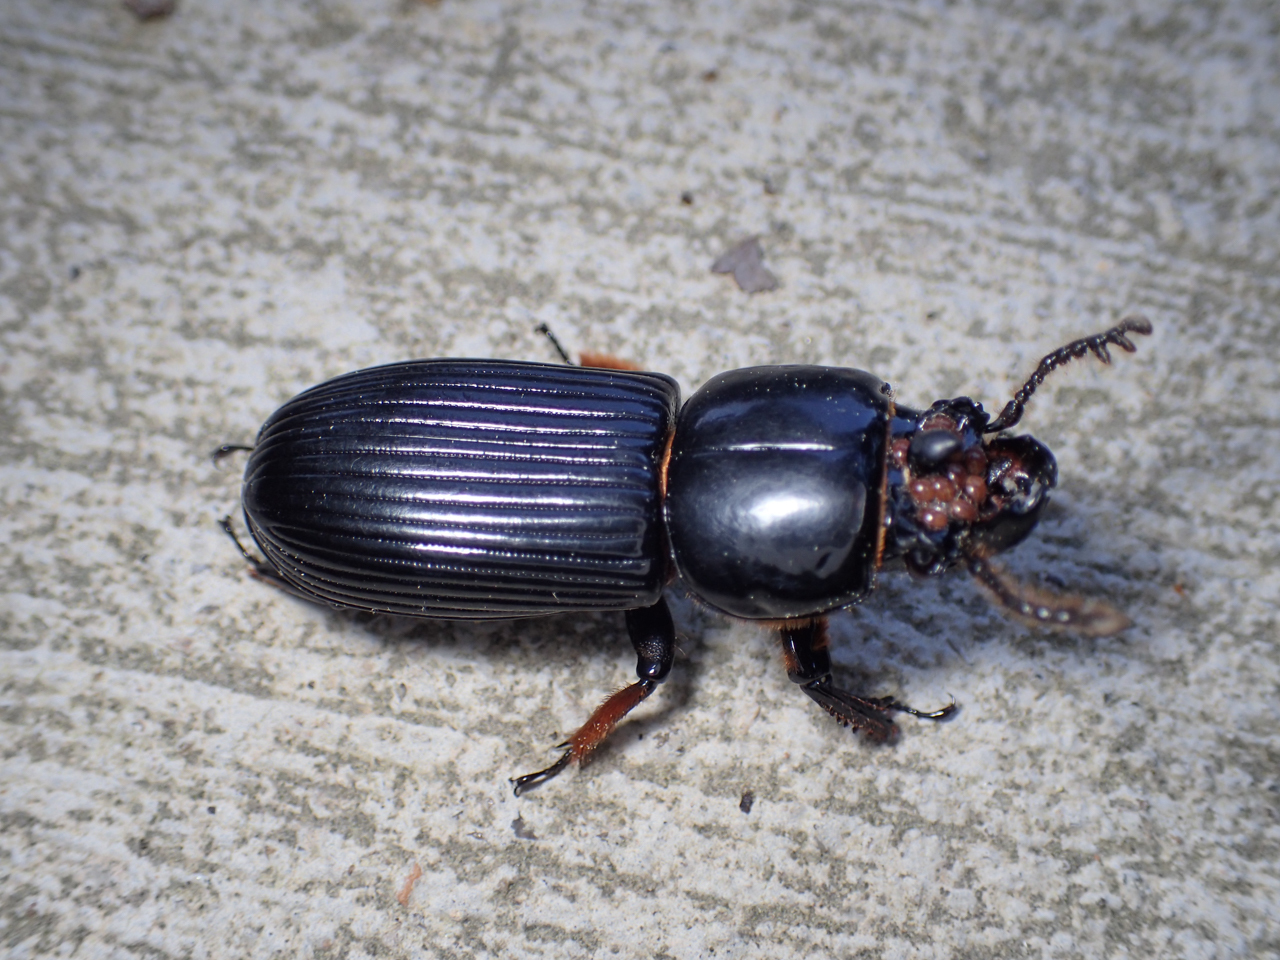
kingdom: Animalia
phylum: Arthropoda
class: Insecta
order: Coleoptera
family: Passalidae
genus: Odontotaenius
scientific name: Odontotaenius disjunctus
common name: Patent leather beetle
